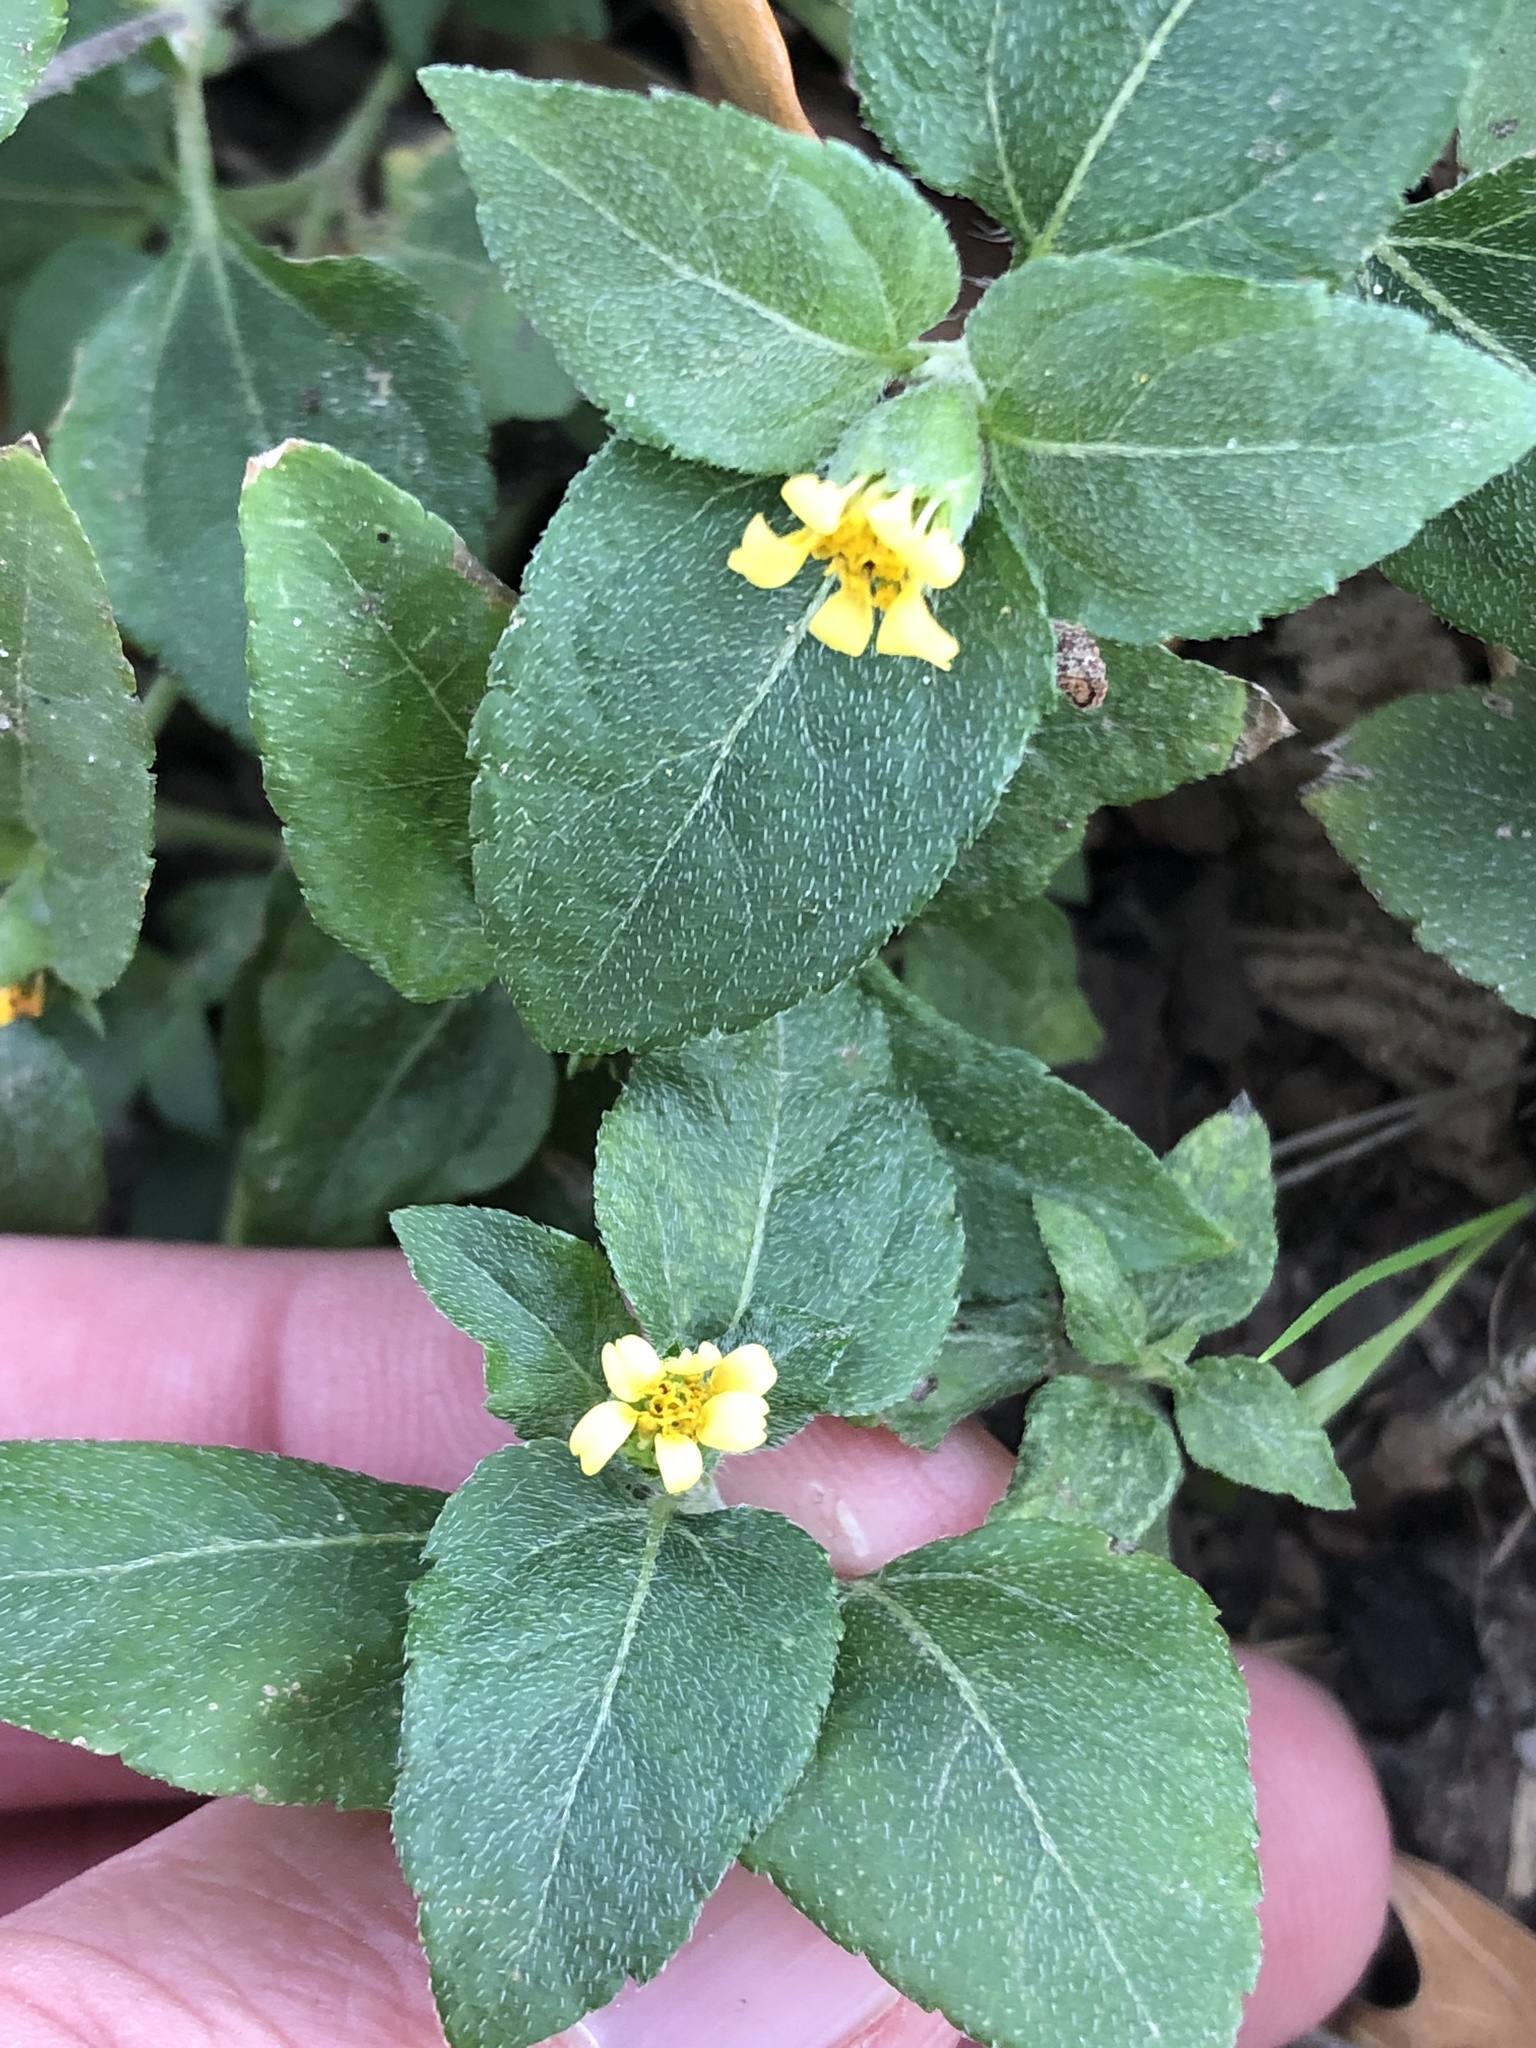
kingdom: Plantae
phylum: Tracheophyta
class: Magnoliopsida
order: Asterales
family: Asteraceae
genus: Calyptocarpus
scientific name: Calyptocarpus vialis
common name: Straggler daisy
